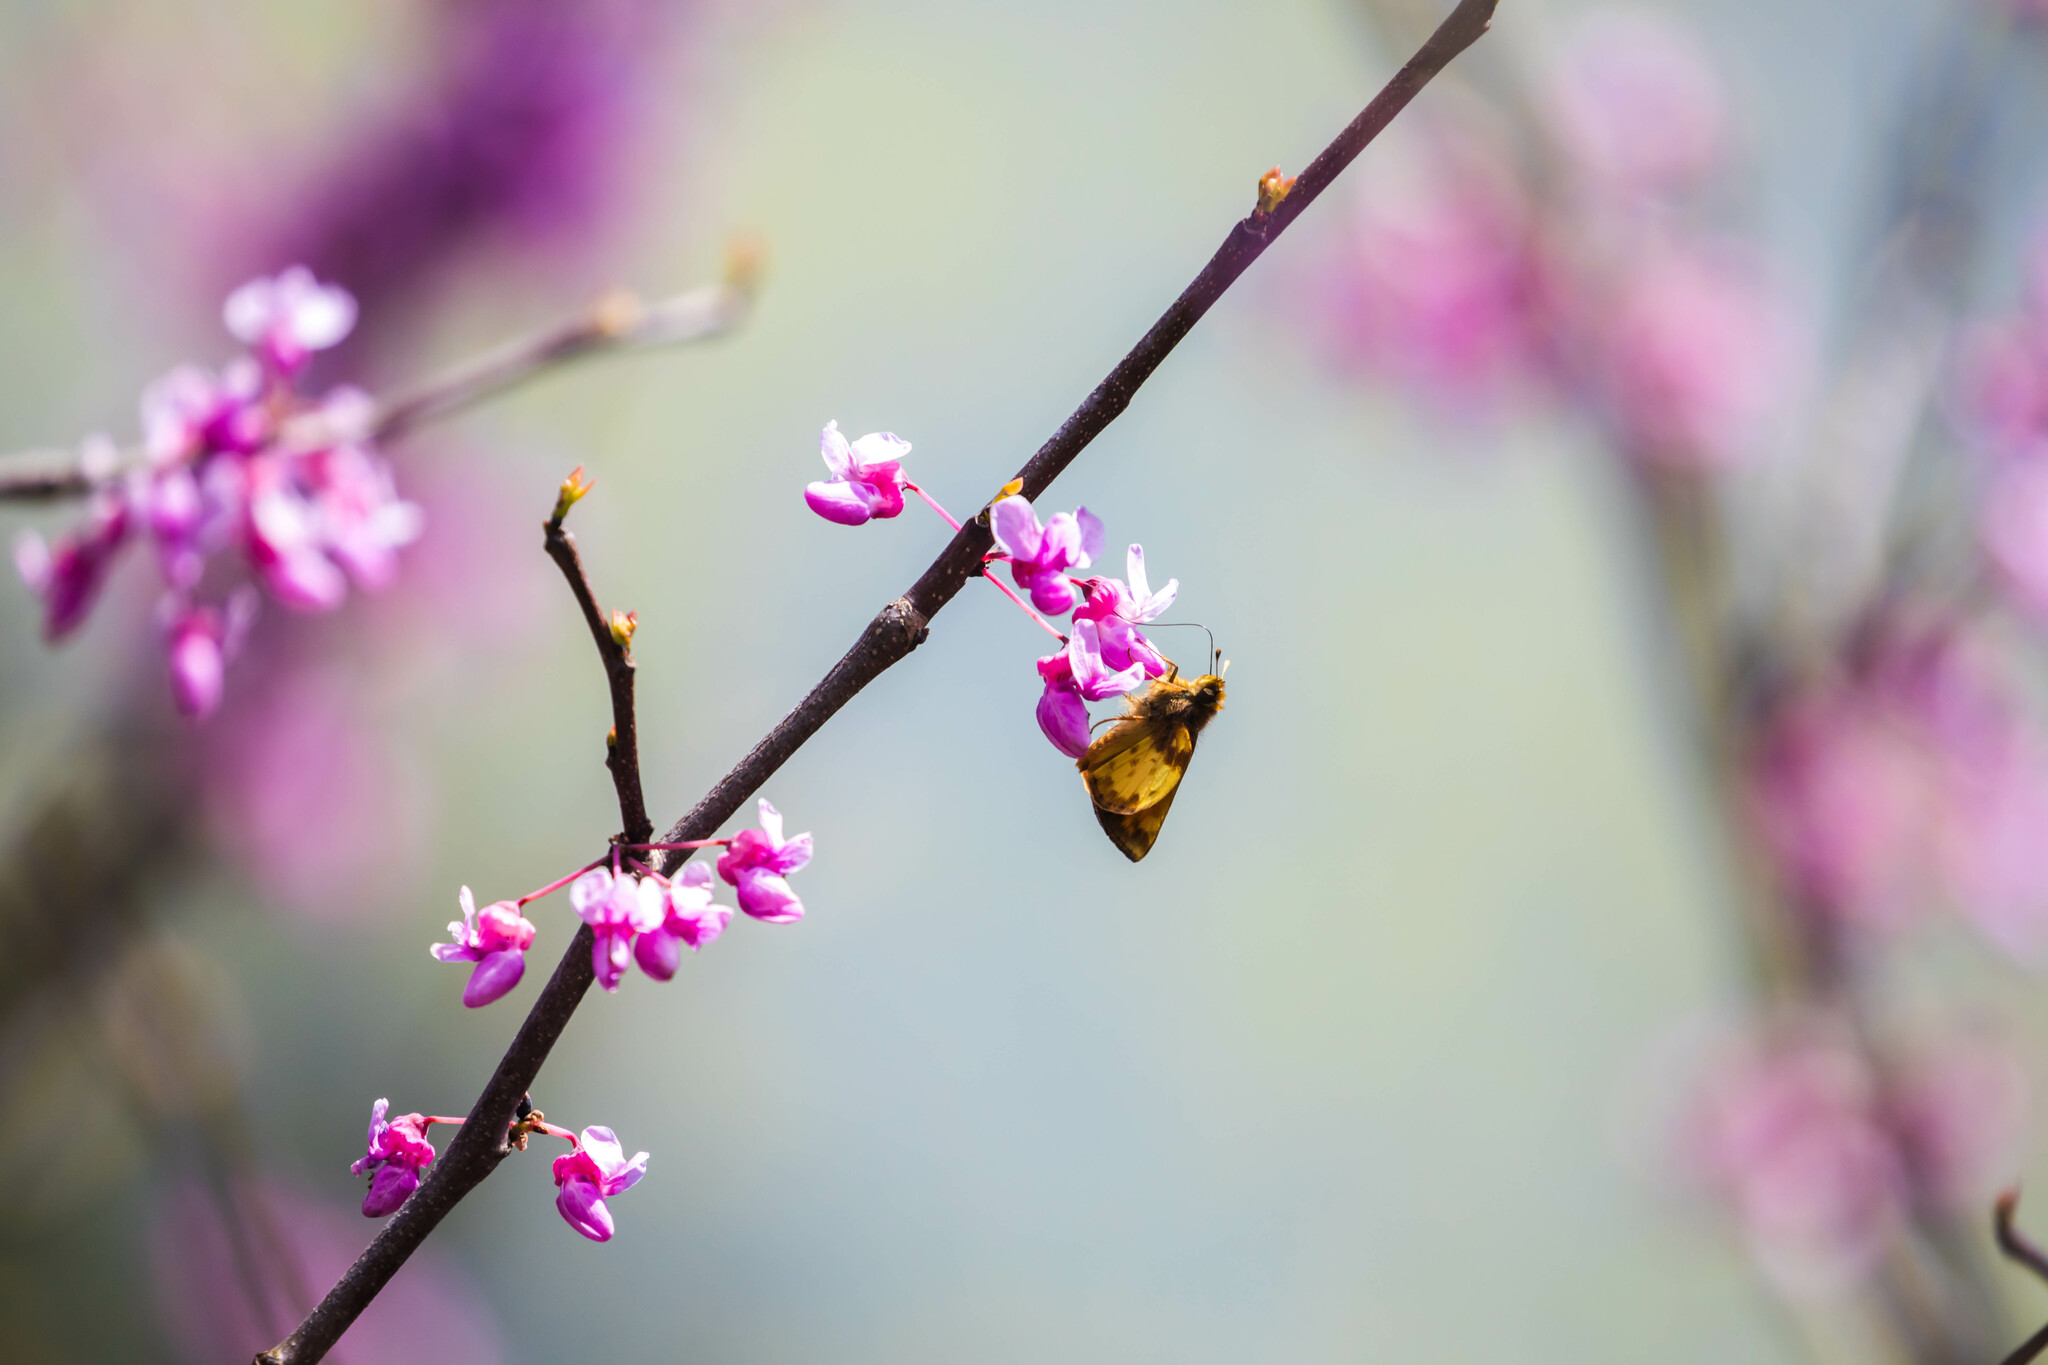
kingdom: Animalia
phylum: Arthropoda
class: Insecta
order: Lepidoptera
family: Hesperiidae
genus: Lon
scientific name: Lon zabulon
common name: Zabulon skipper
